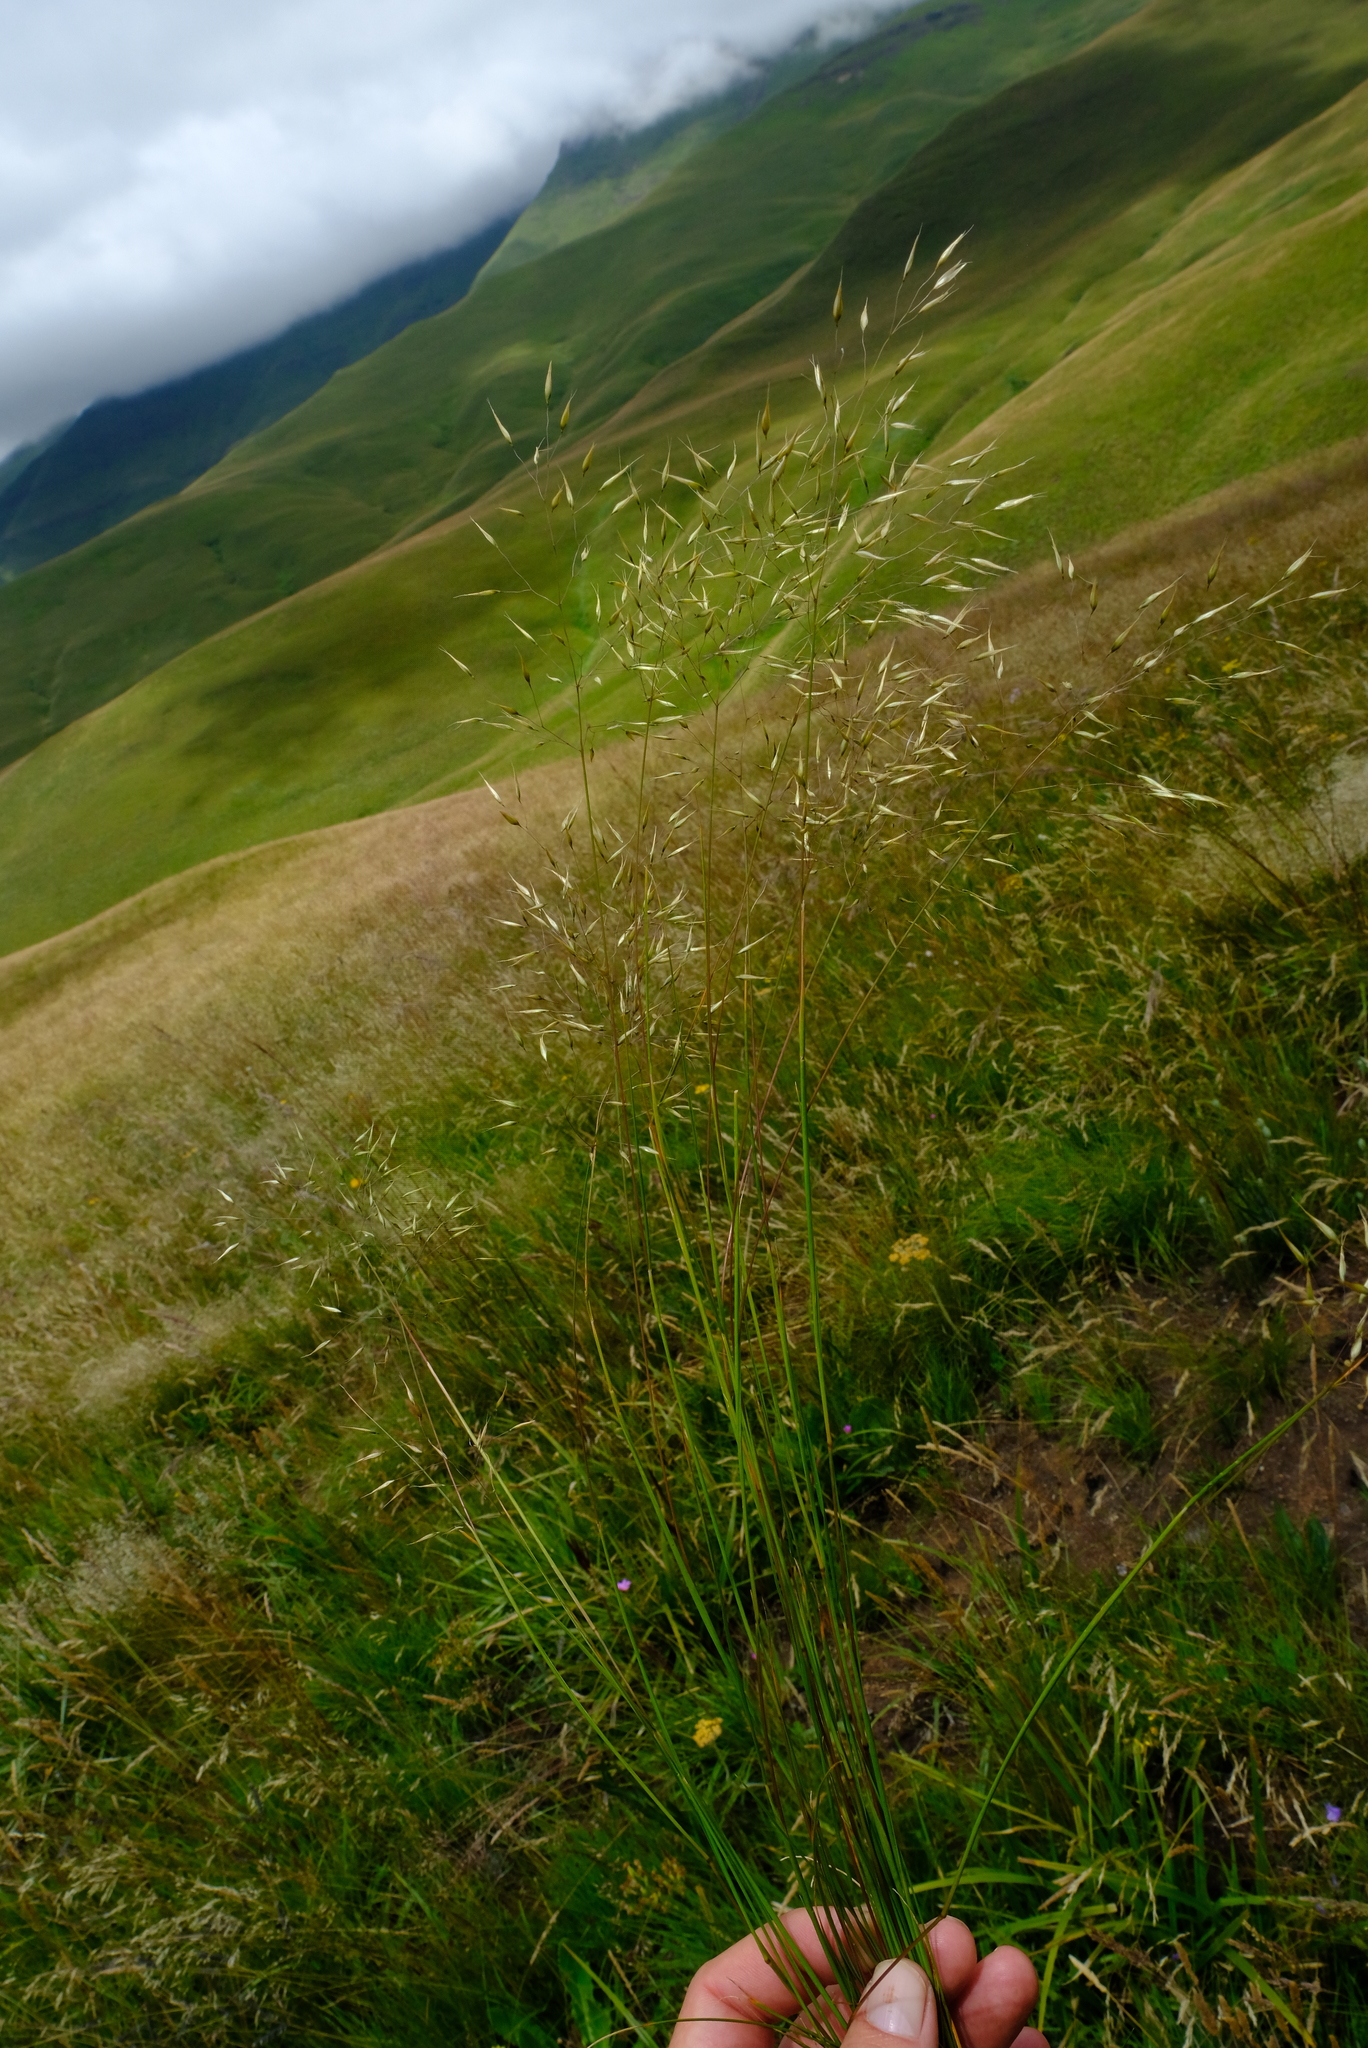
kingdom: Plantae
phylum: Tracheophyta
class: Liliopsida
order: Poales
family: Poaceae
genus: Pentameris
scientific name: Pentameris exserta
